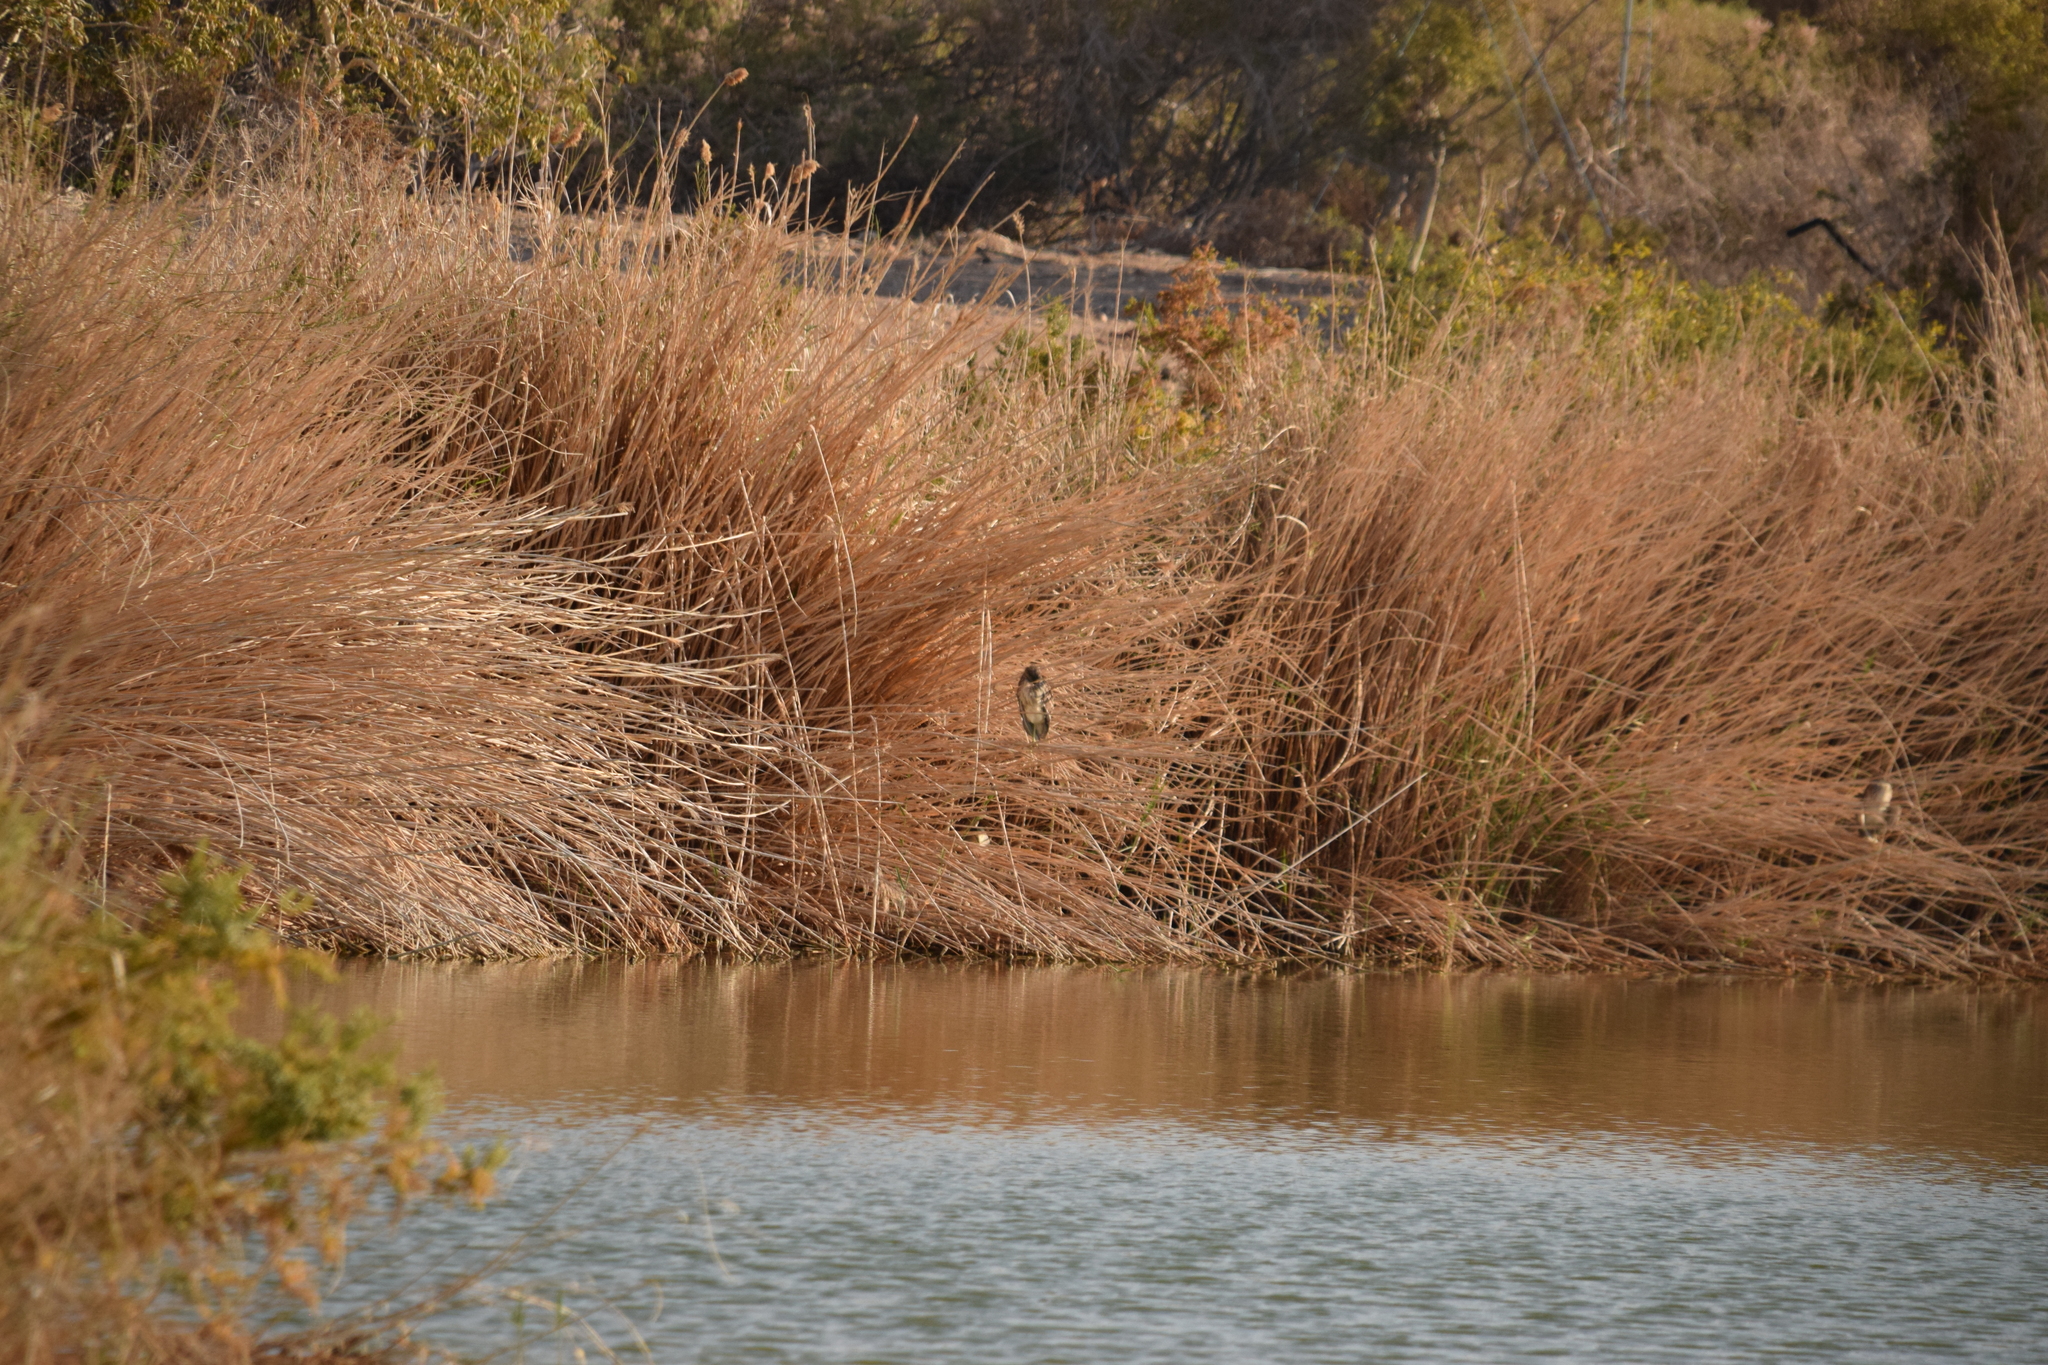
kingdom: Animalia
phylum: Chordata
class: Aves
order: Pelecaniformes
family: Ardeidae
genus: Nycticorax
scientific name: Nycticorax nycticorax
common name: Black-crowned night heron
